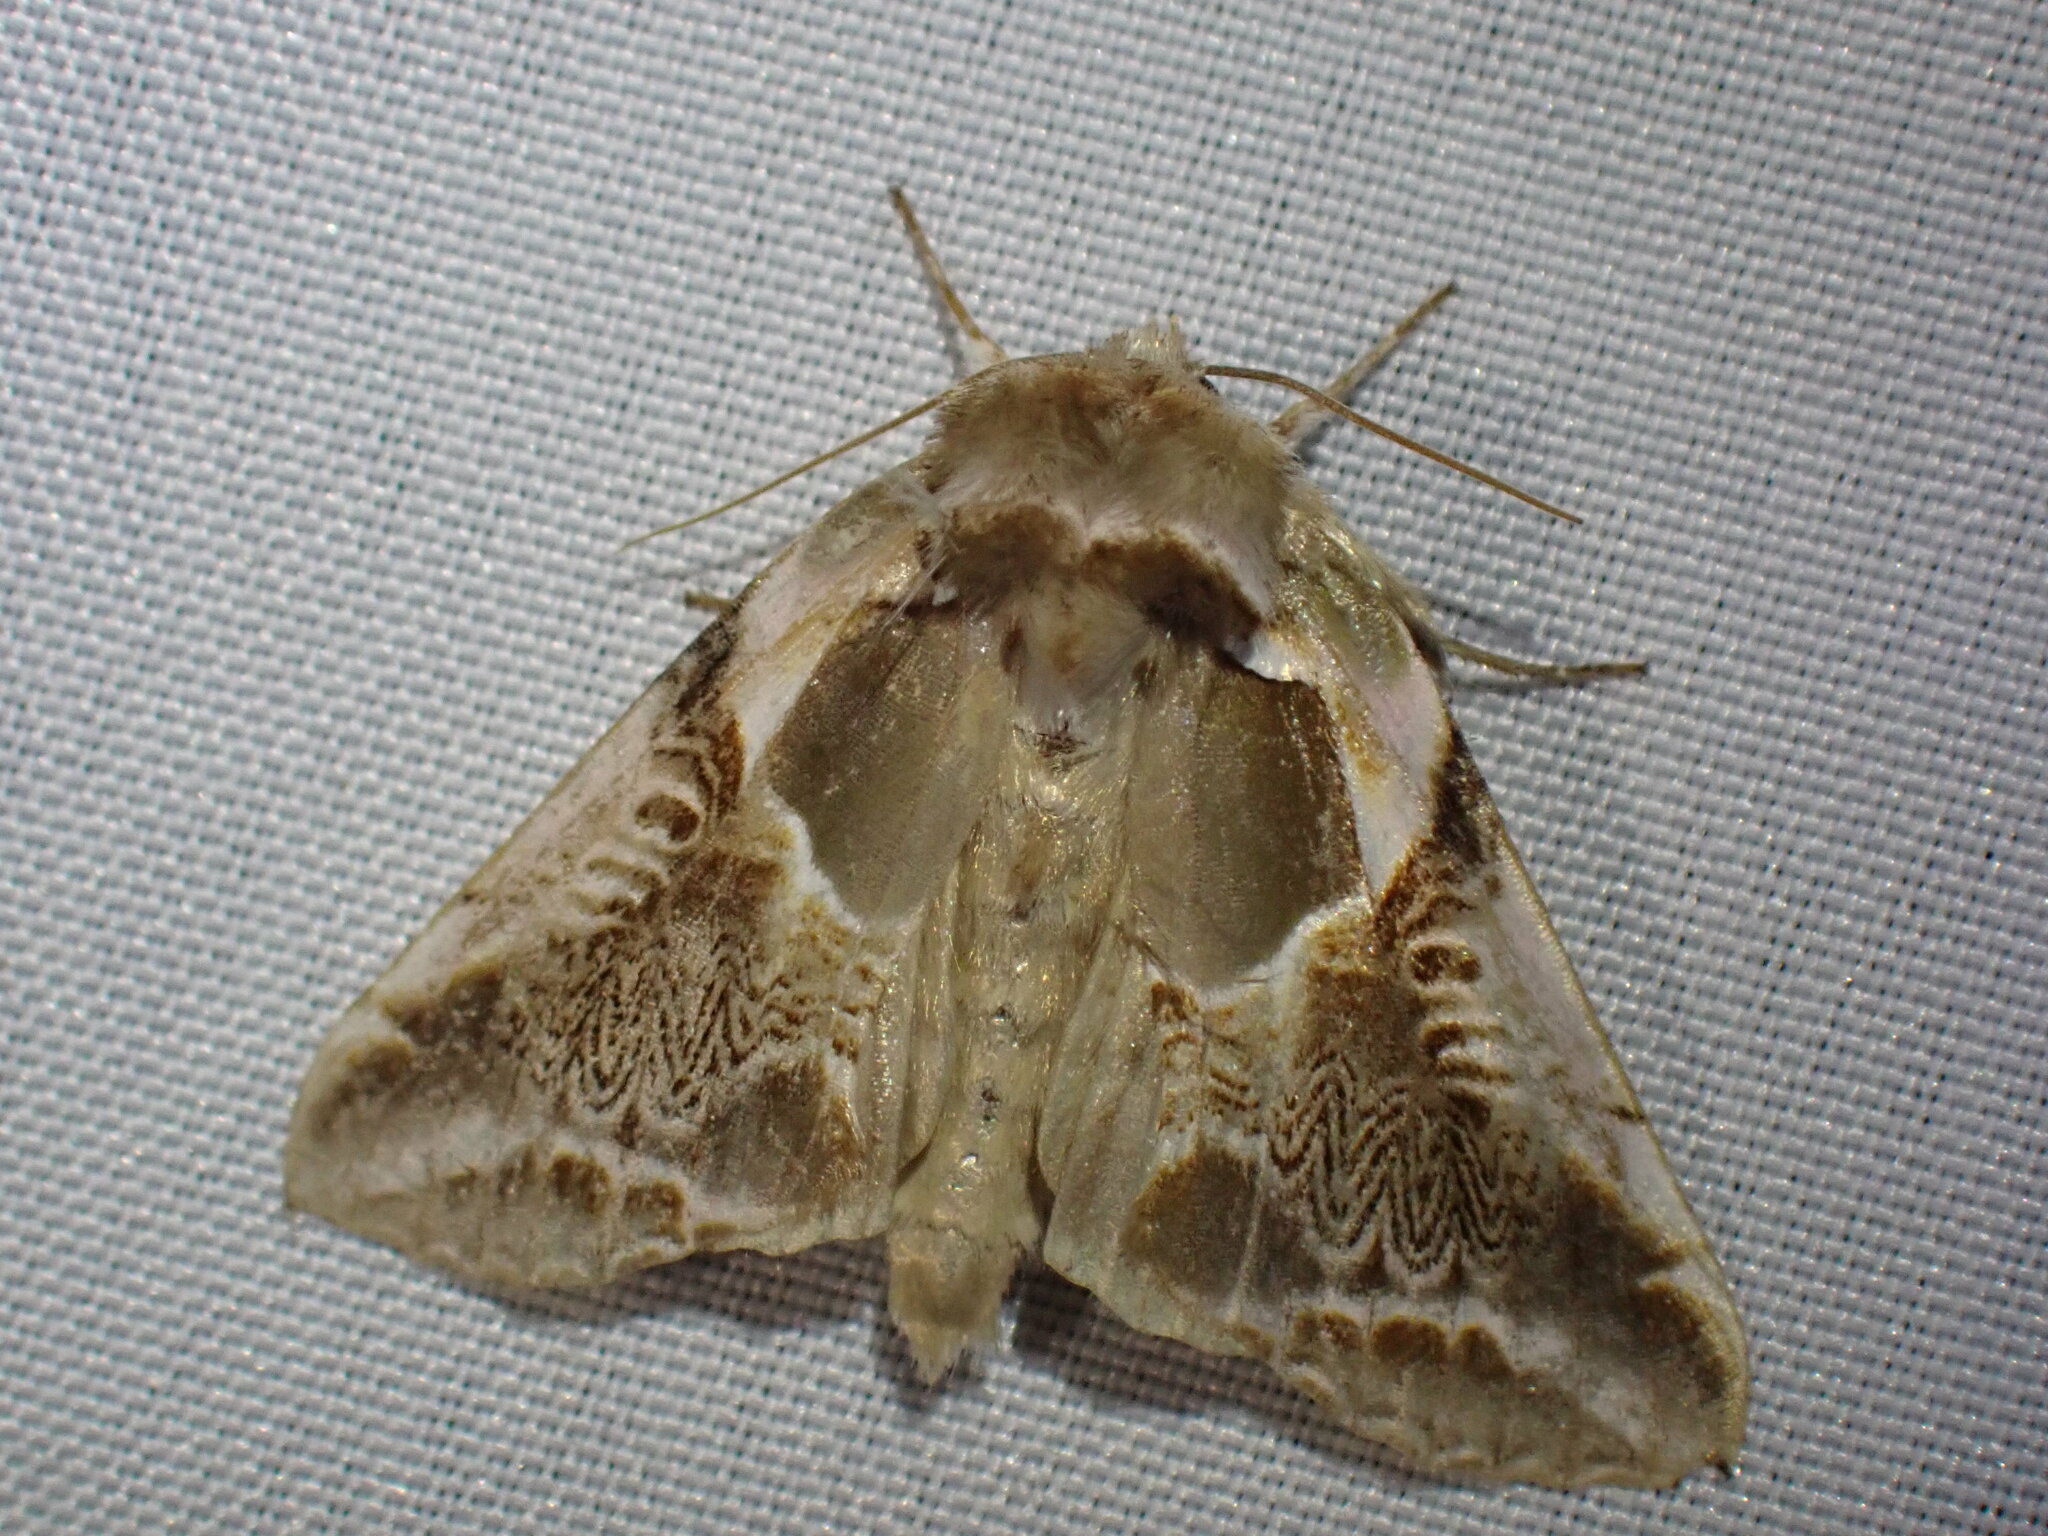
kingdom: Animalia
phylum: Arthropoda
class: Insecta
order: Lepidoptera
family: Drepanidae
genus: Habrosyne
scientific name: Habrosyne scripta
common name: Lettered habrosyne moth
